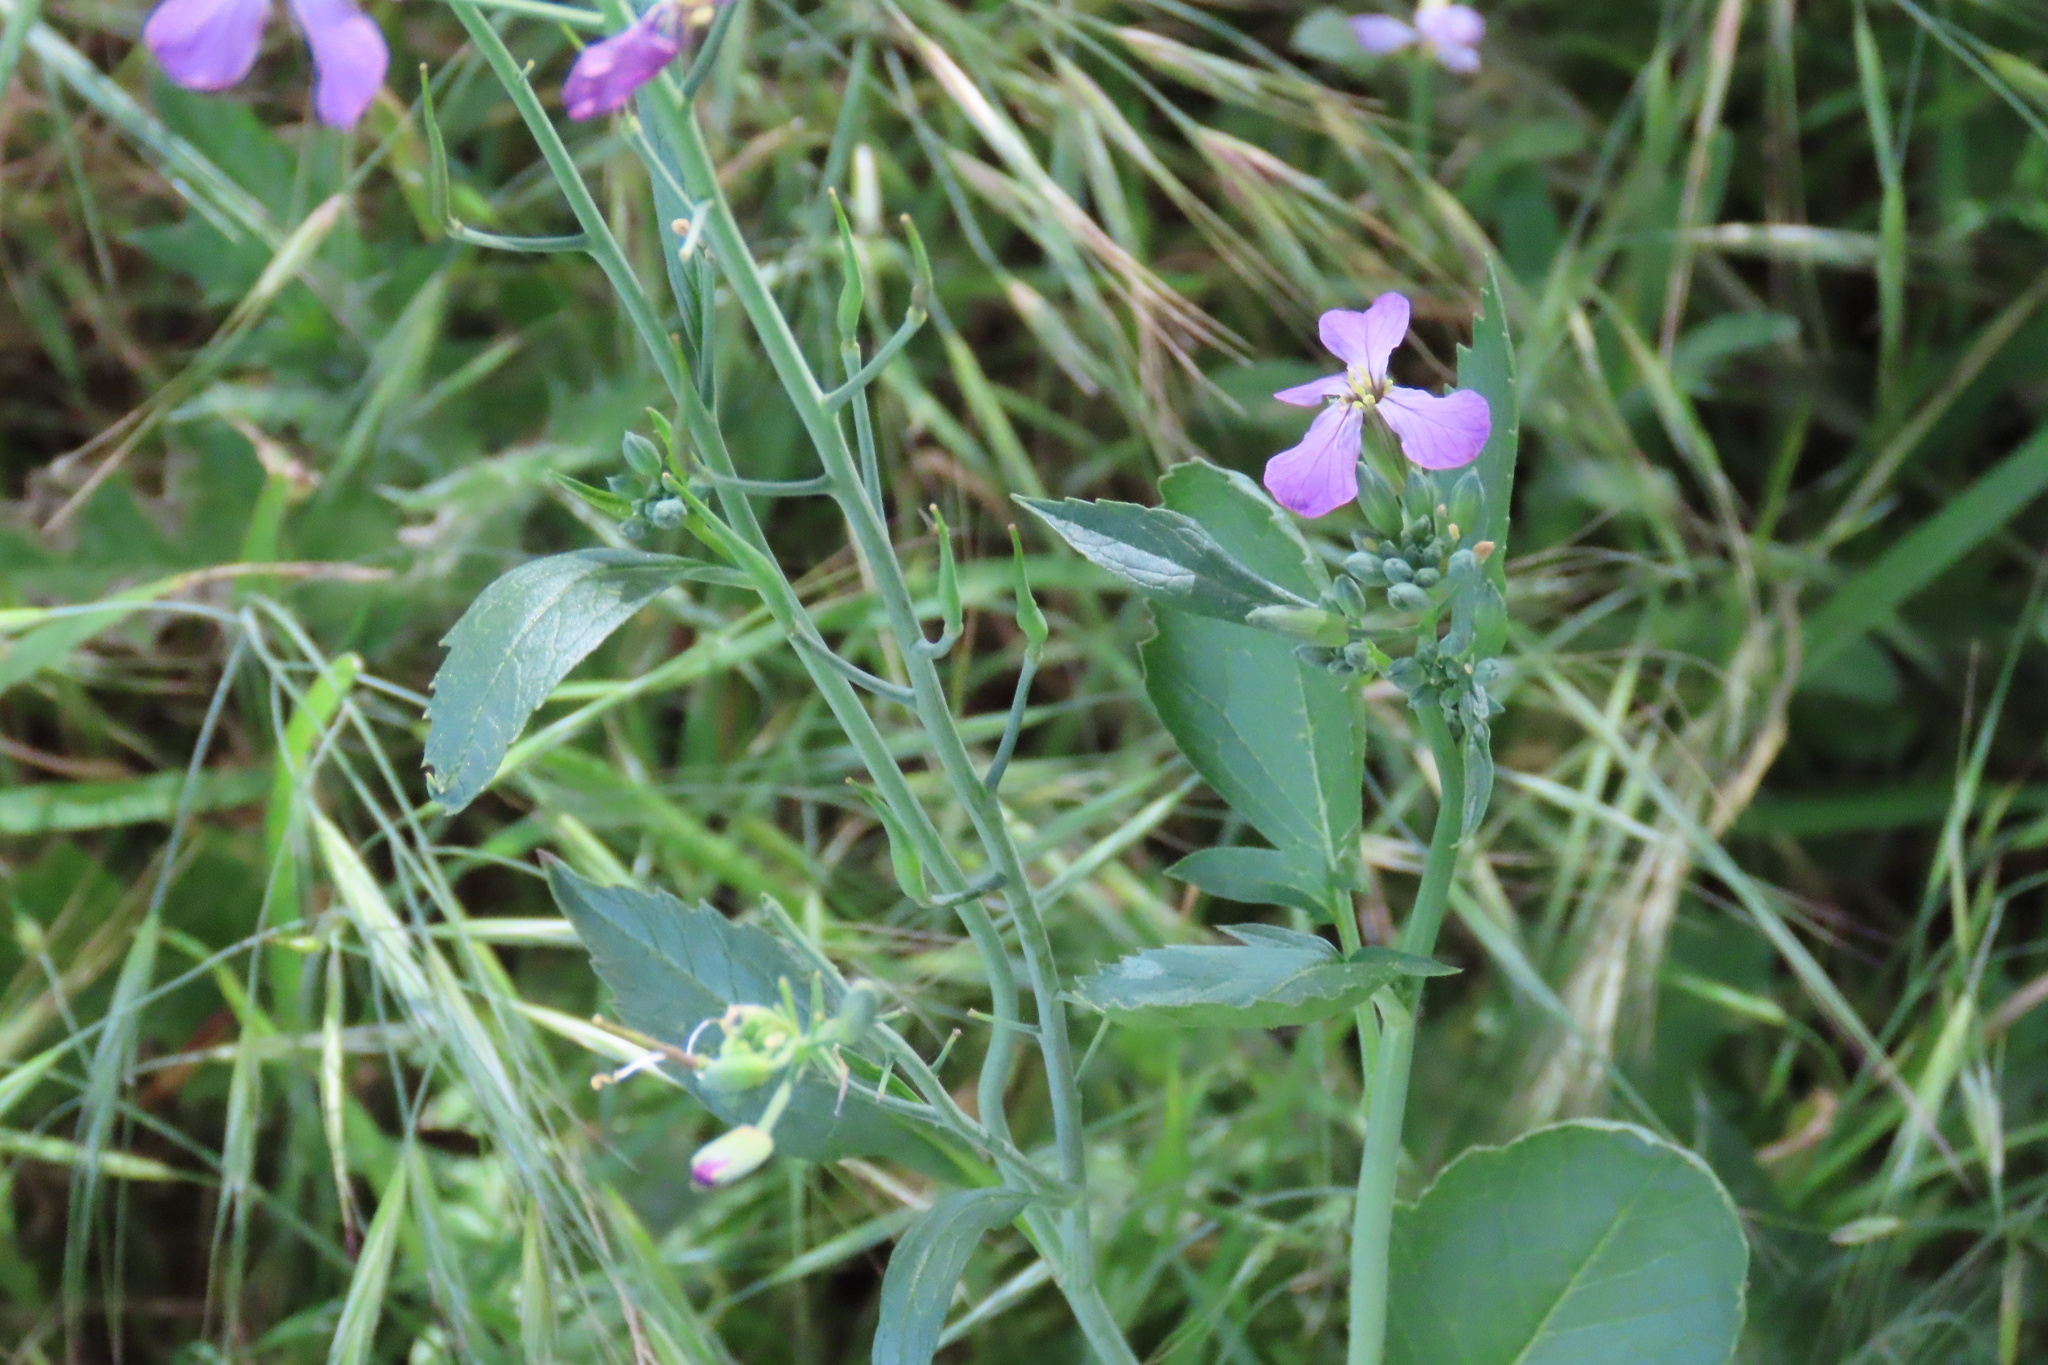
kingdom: Plantae
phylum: Tracheophyta
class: Magnoliopsida
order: Brassicales
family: Brassicaceae
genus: Raphanus
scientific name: Raphanus sativus
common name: Cultivated radish
